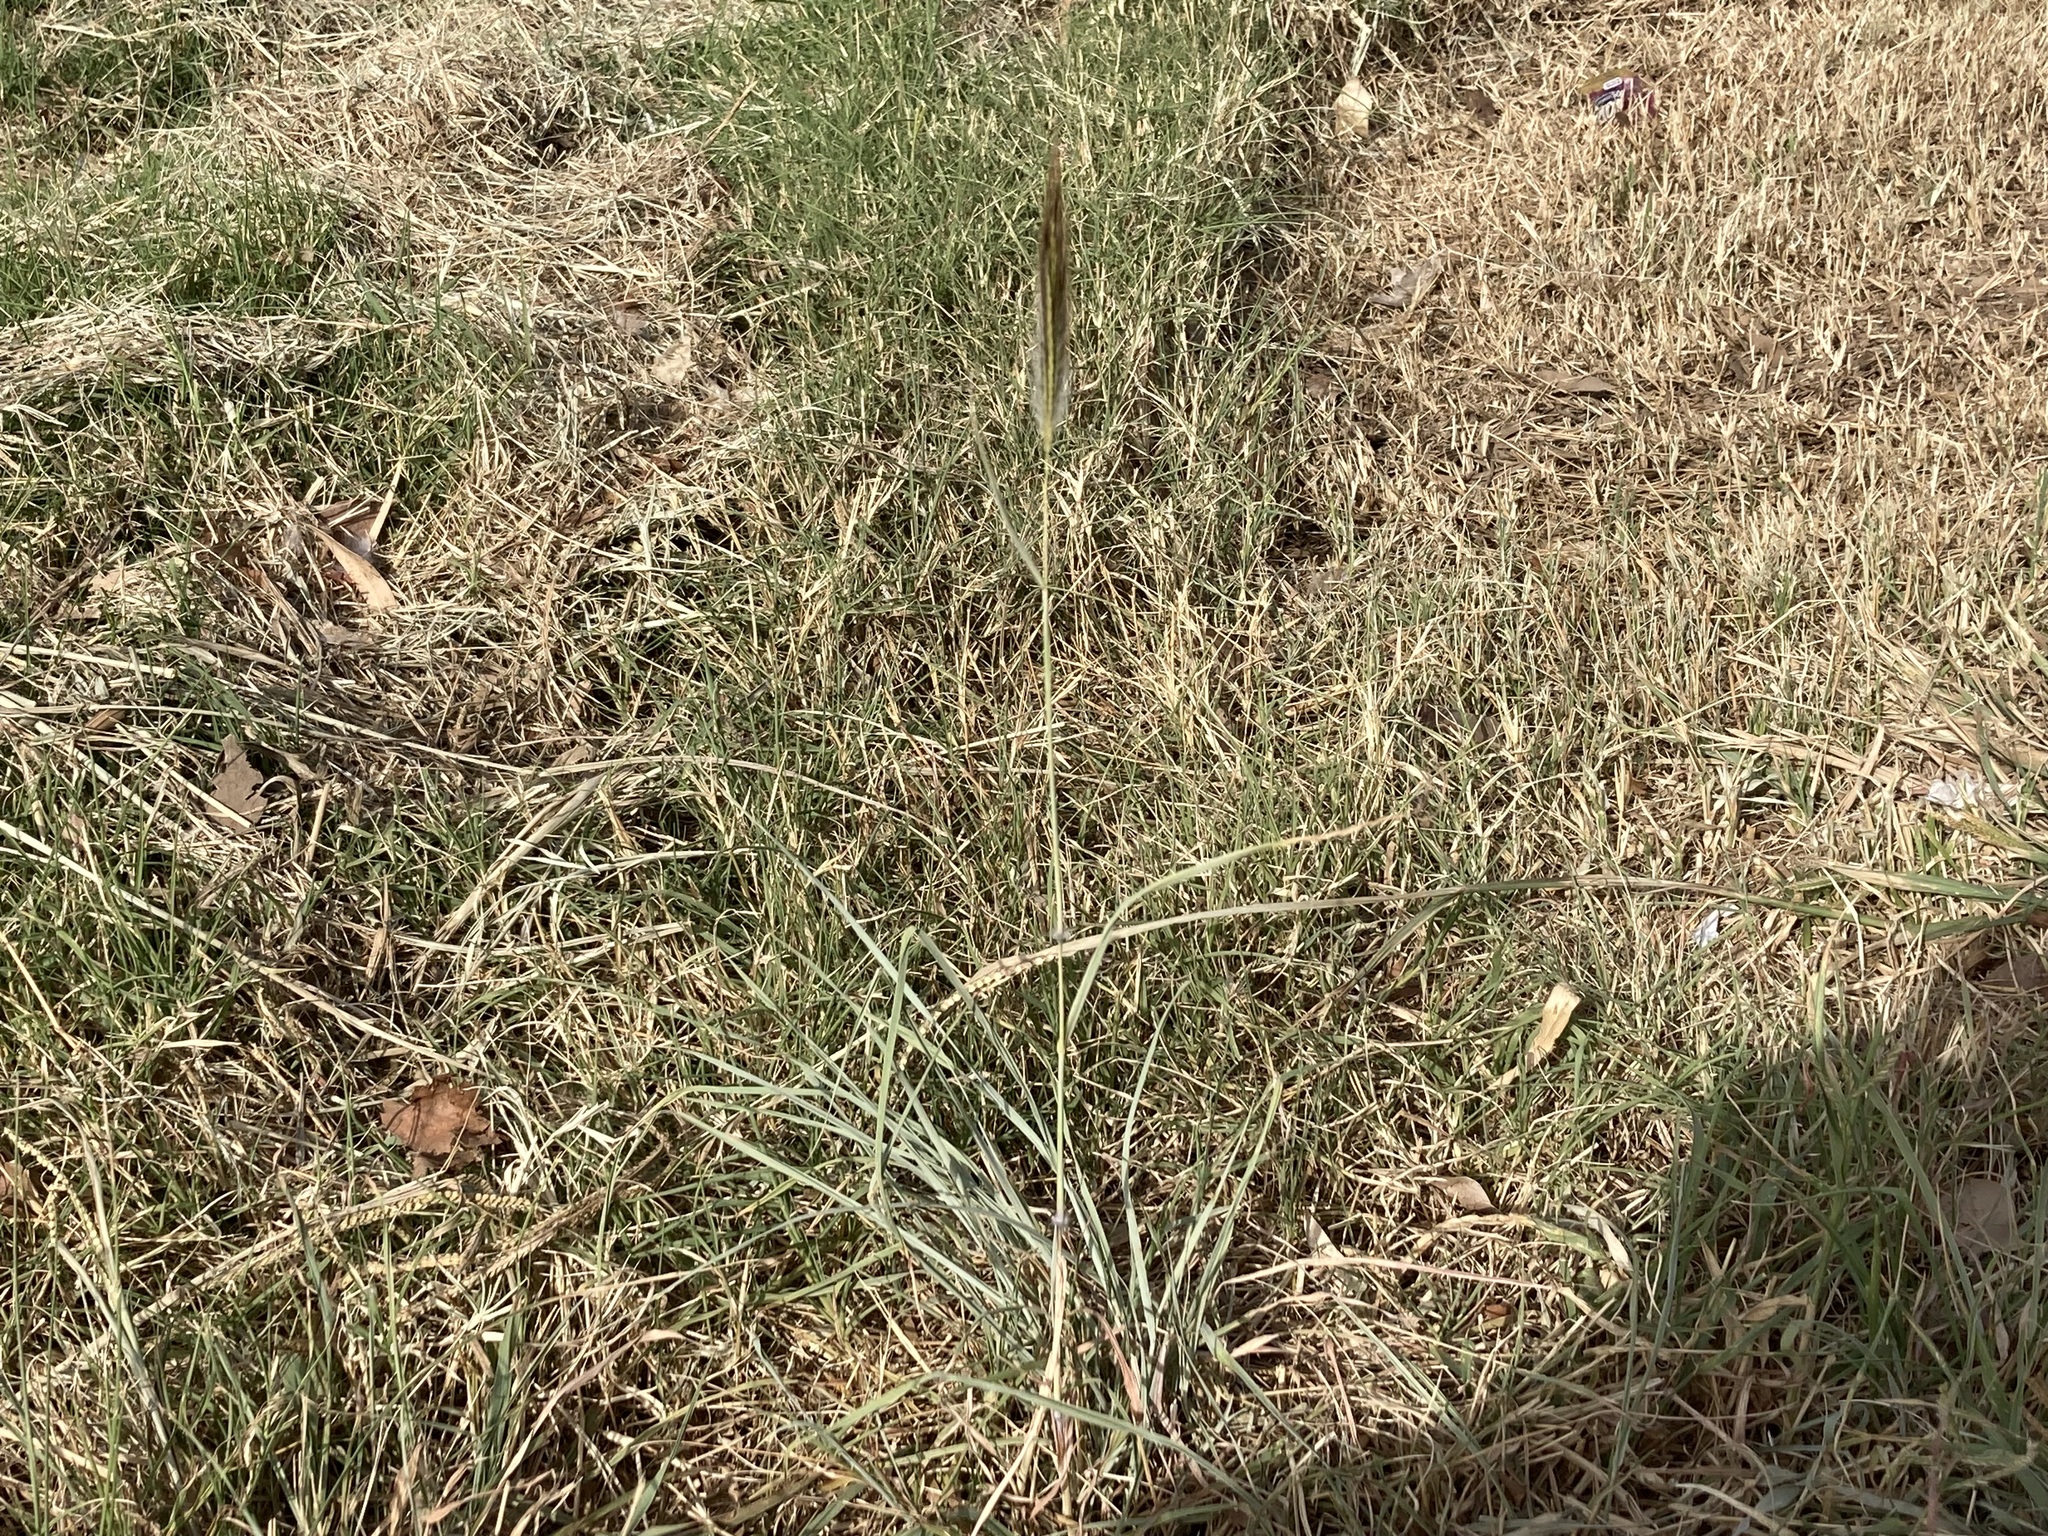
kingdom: Plantae
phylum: Tracheophyta
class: Liliopsida
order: Poales
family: Poaceae
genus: Dichanthium
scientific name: Dichanthium sericeum
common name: Silky bluestem
